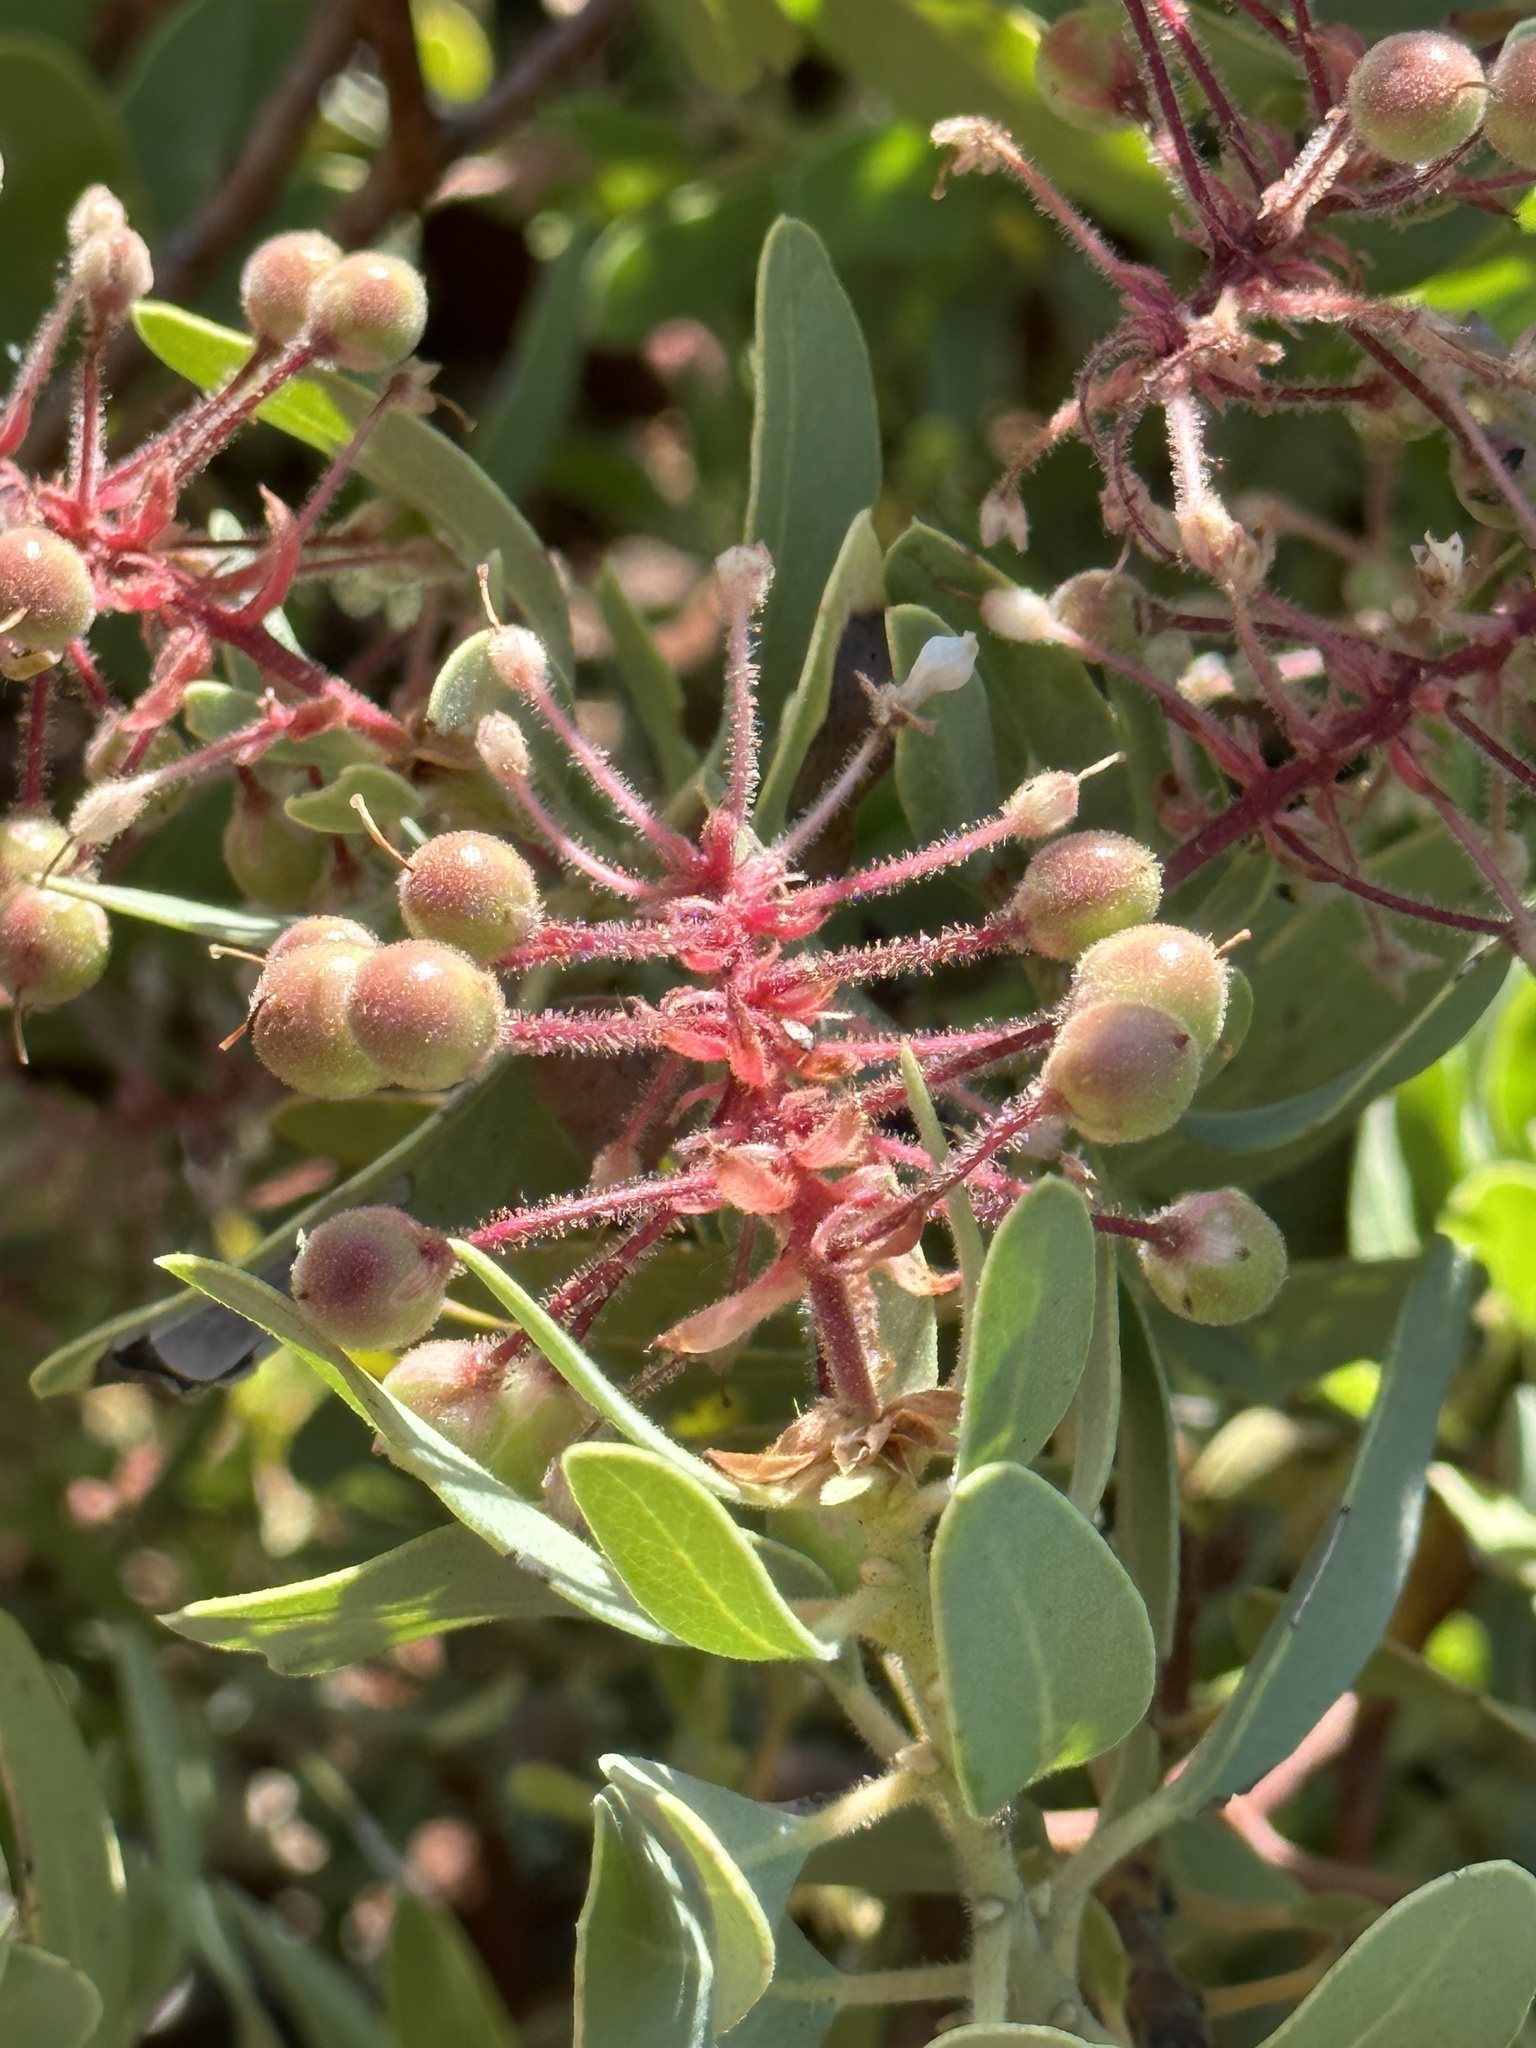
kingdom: Plantae
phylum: Tracheophyta
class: Magnoliopsida
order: Ericales
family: Ericaceae
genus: Arctostaphylos
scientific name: Arctostaphylos pringlei
